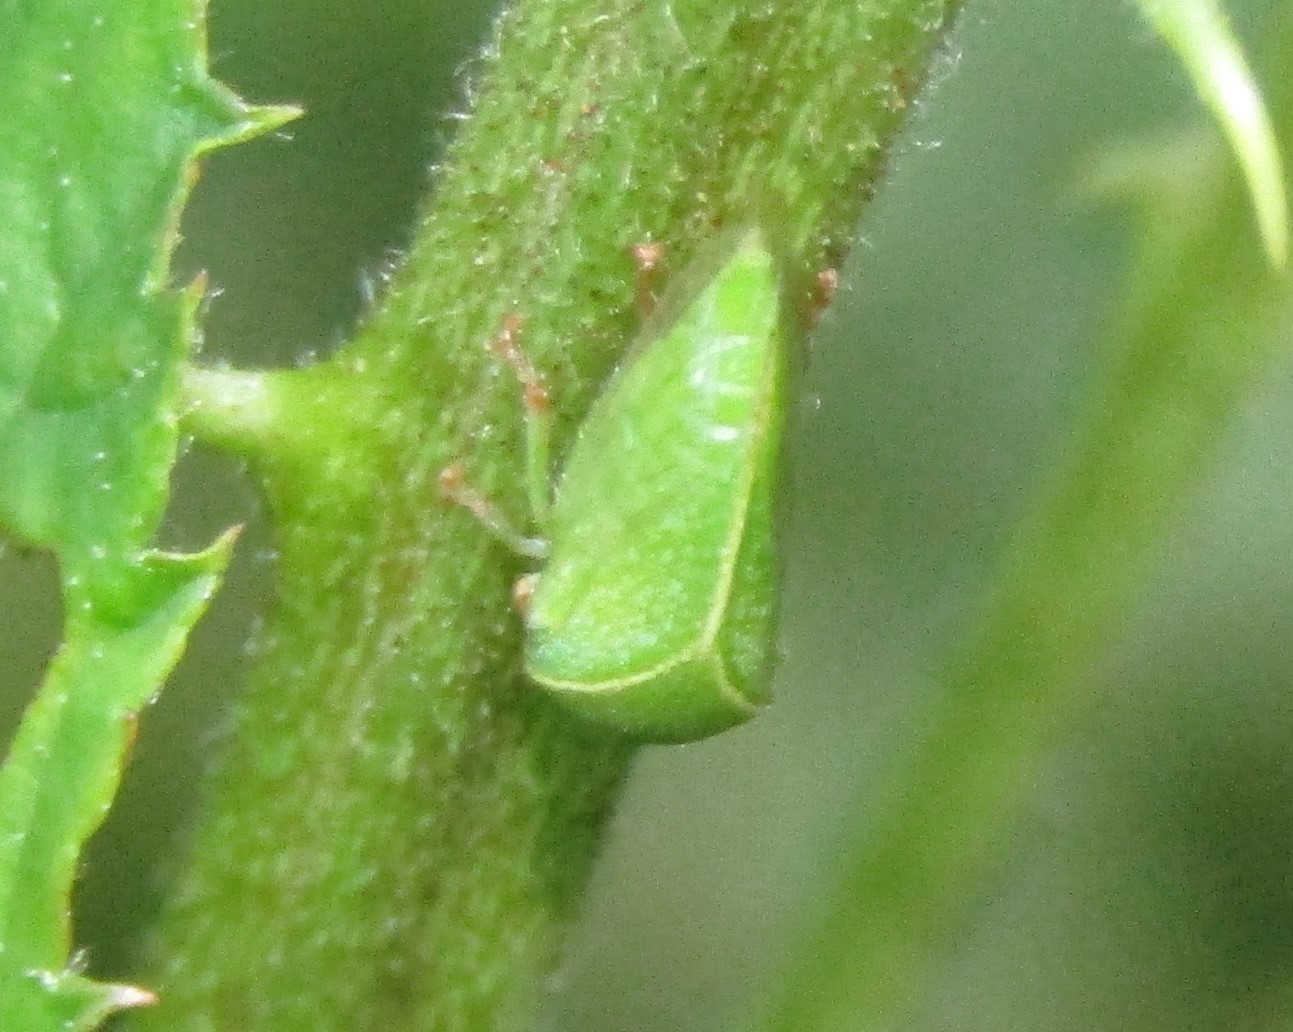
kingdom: Animalia
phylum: Arthropoda
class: Insecta
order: Hemiptera
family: Membracidae
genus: Spissistilus
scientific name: Spissistilus festina
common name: Membracid bug
